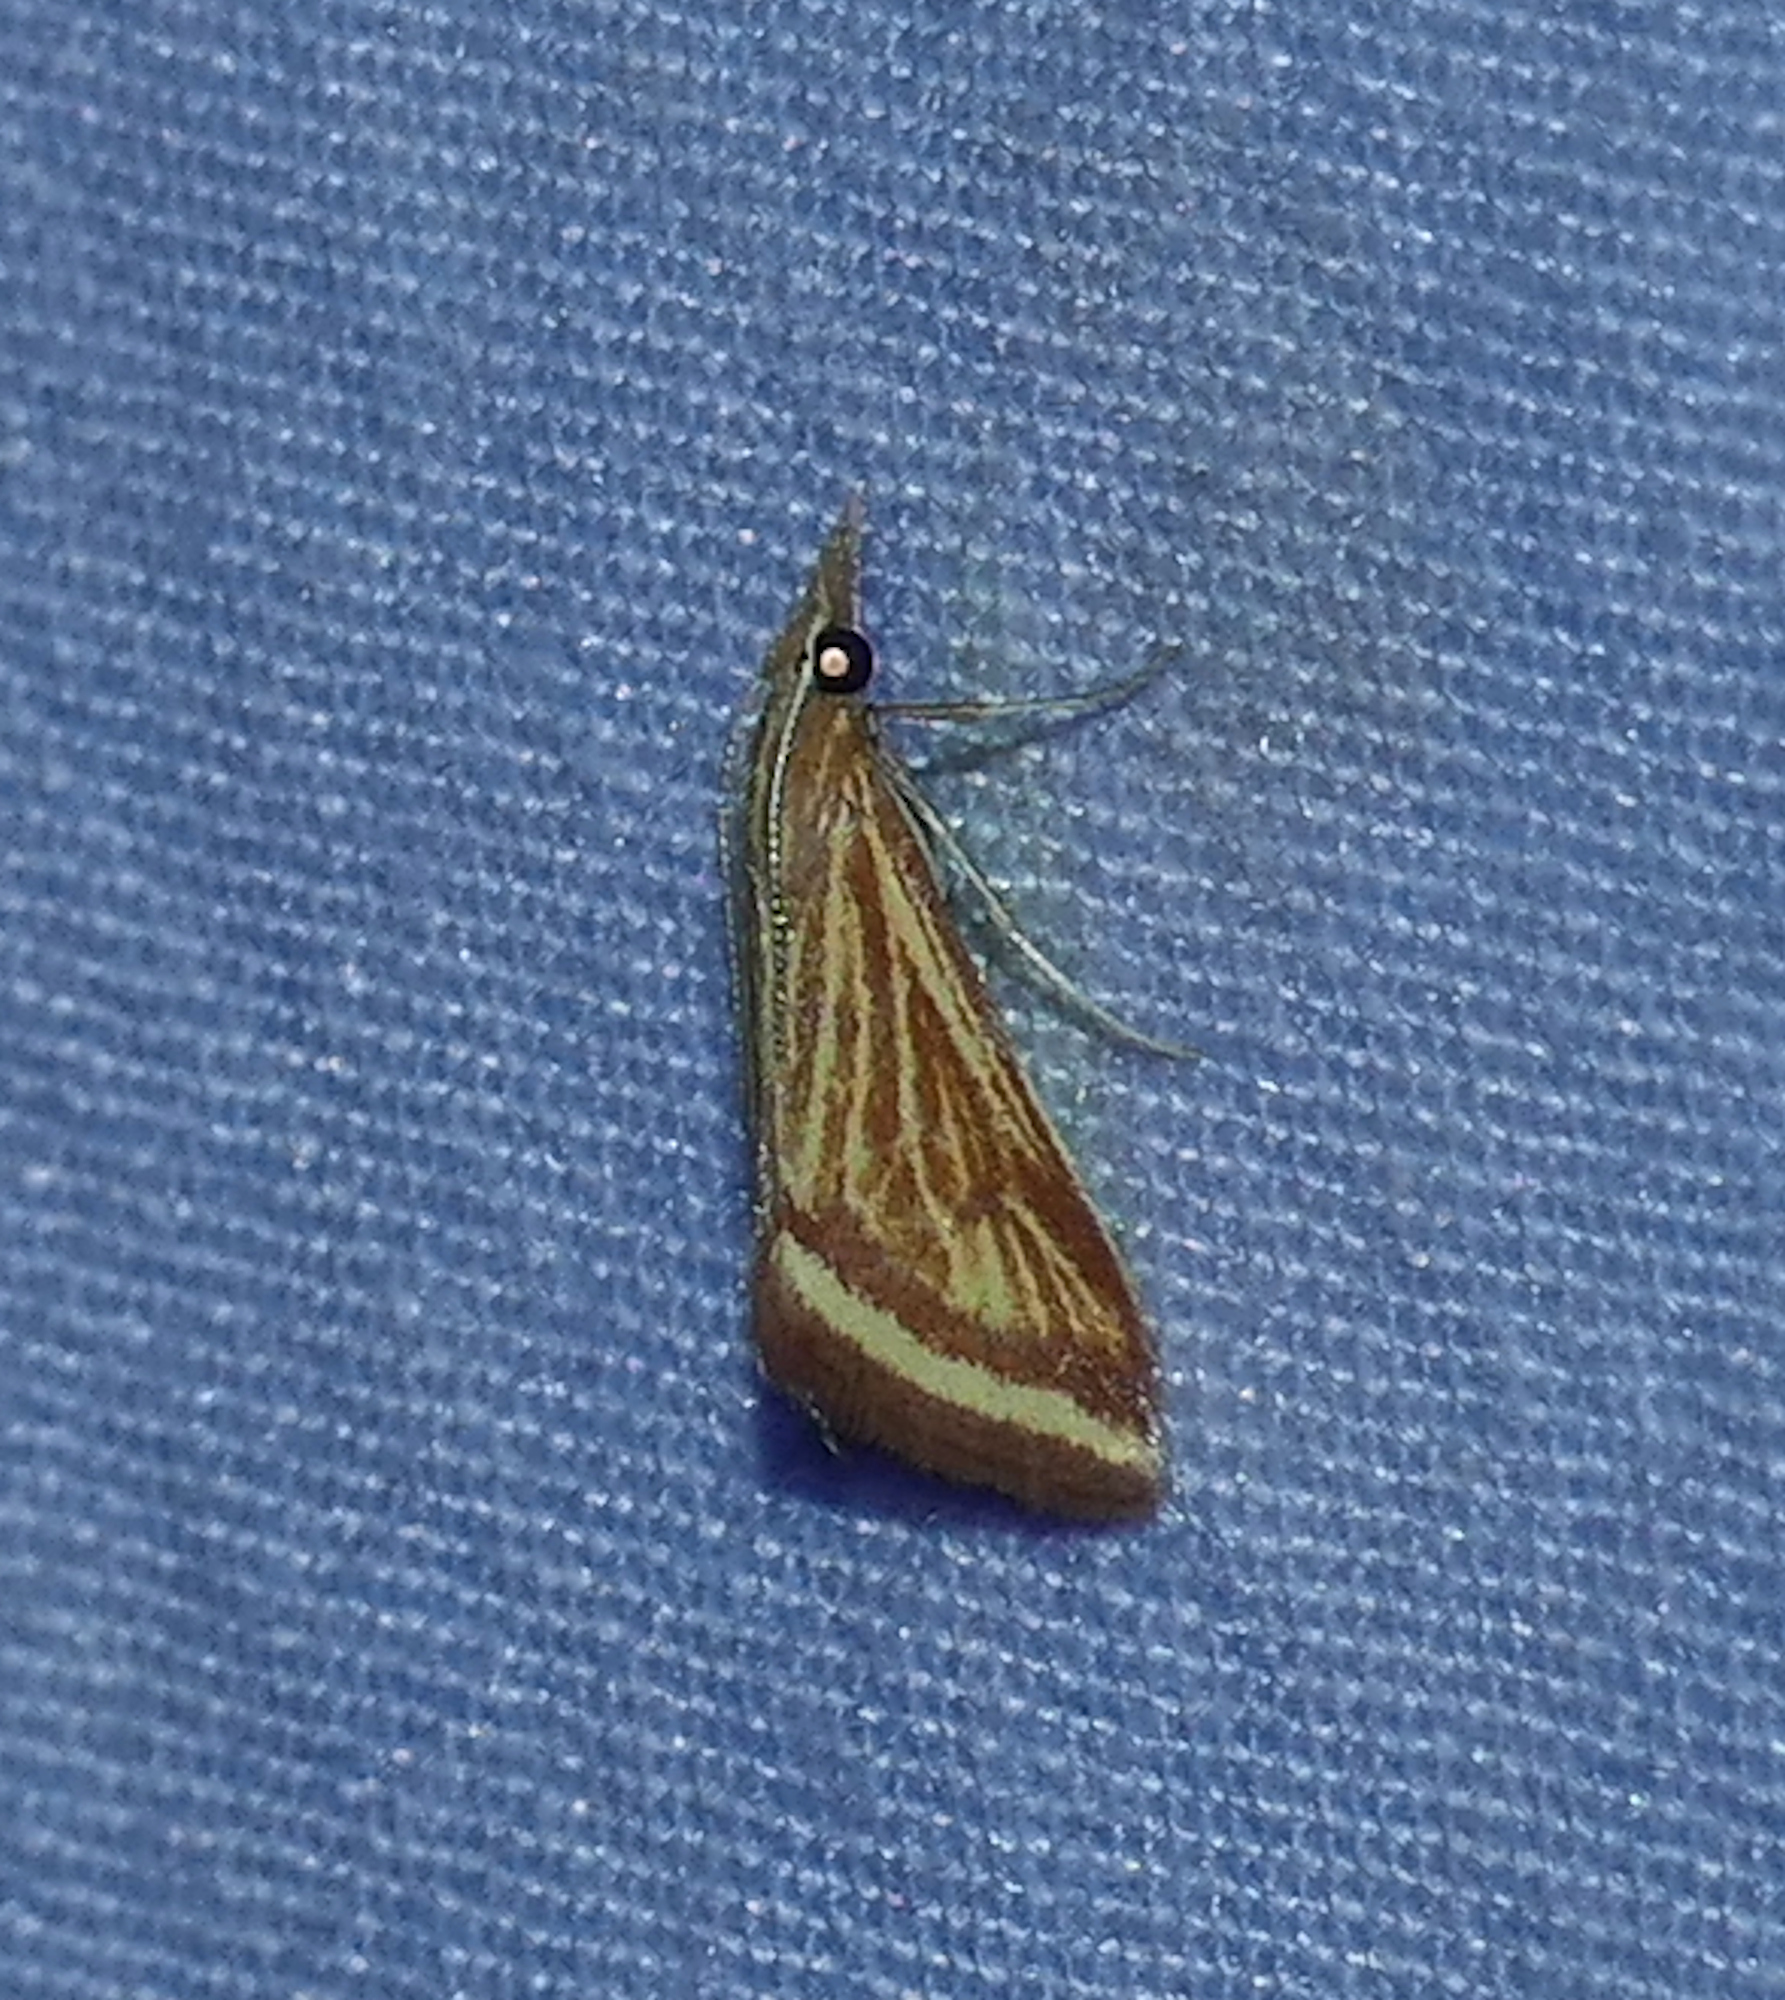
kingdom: Animalia
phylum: Arthropoda
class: Insecta
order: Lepidoptera
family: Crambidae
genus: Microtheoris
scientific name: Microtheoris ophionalis
